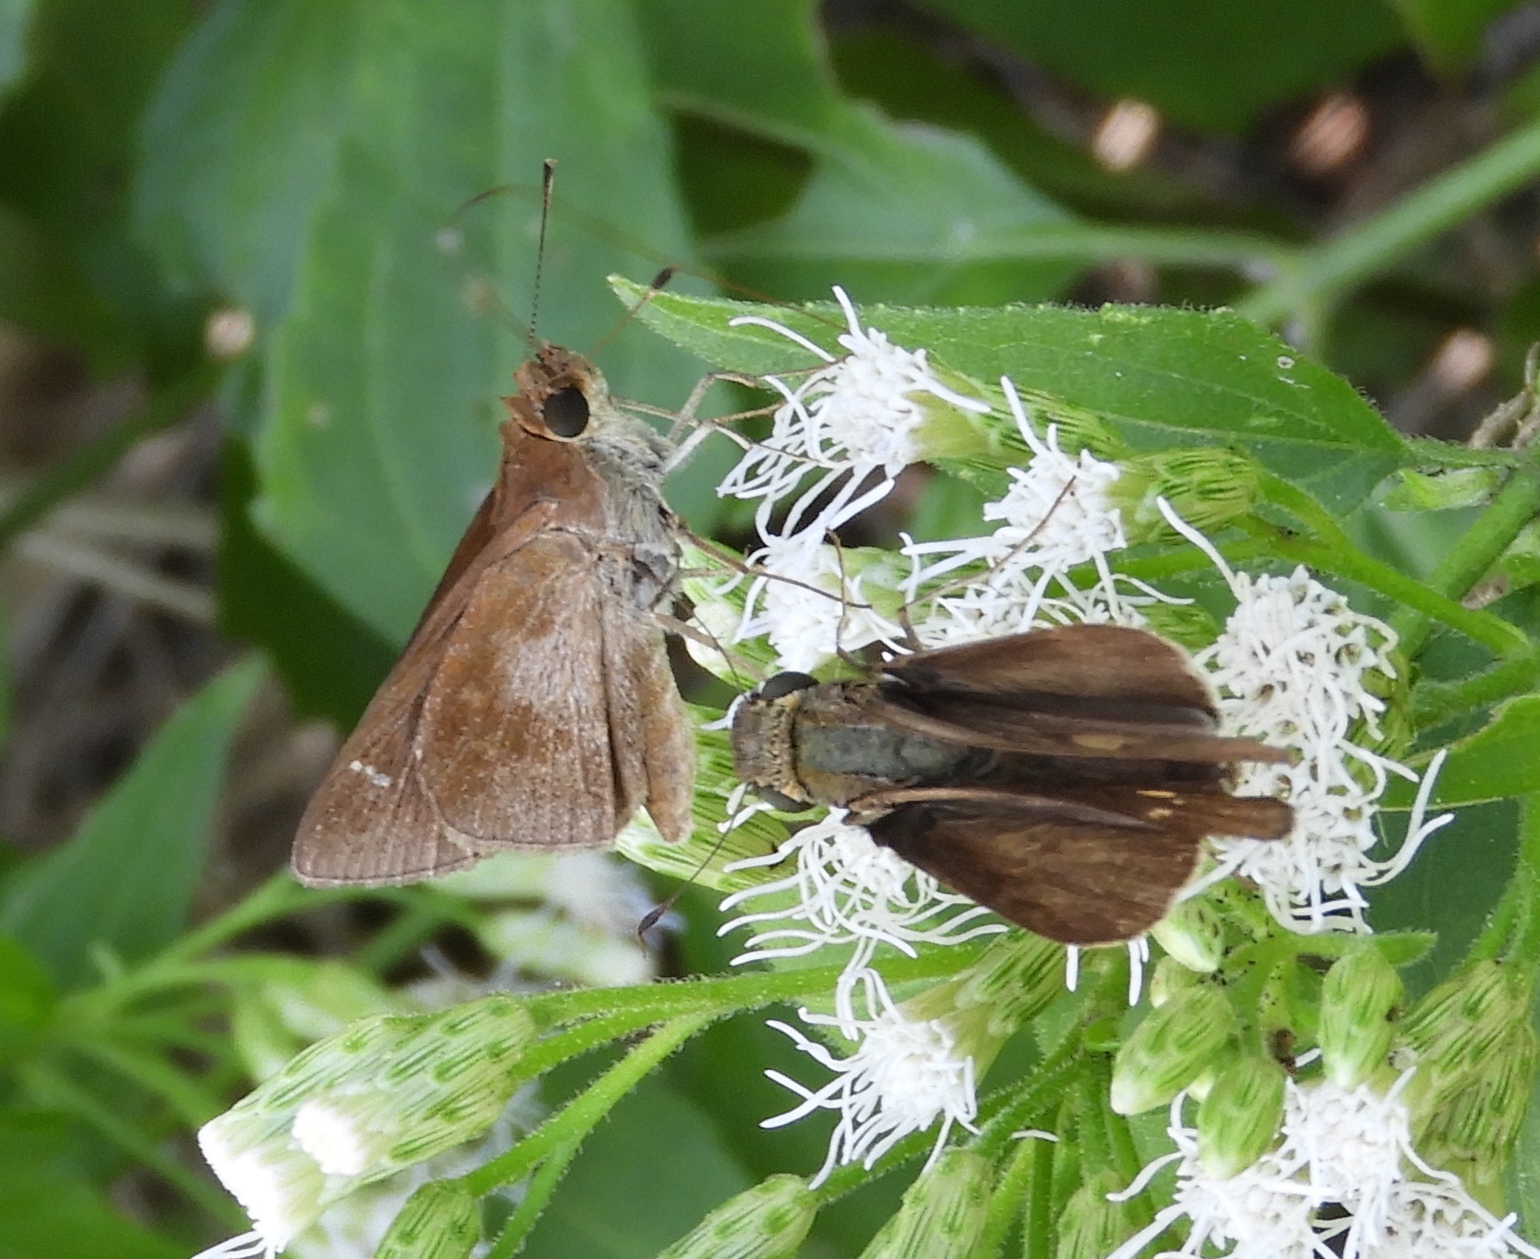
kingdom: Animalia
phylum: Arthropoda
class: Insecta
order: Lepidoptera
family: Hesperiidae
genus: Lerema
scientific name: Lerema accius
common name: Clouded skipper
